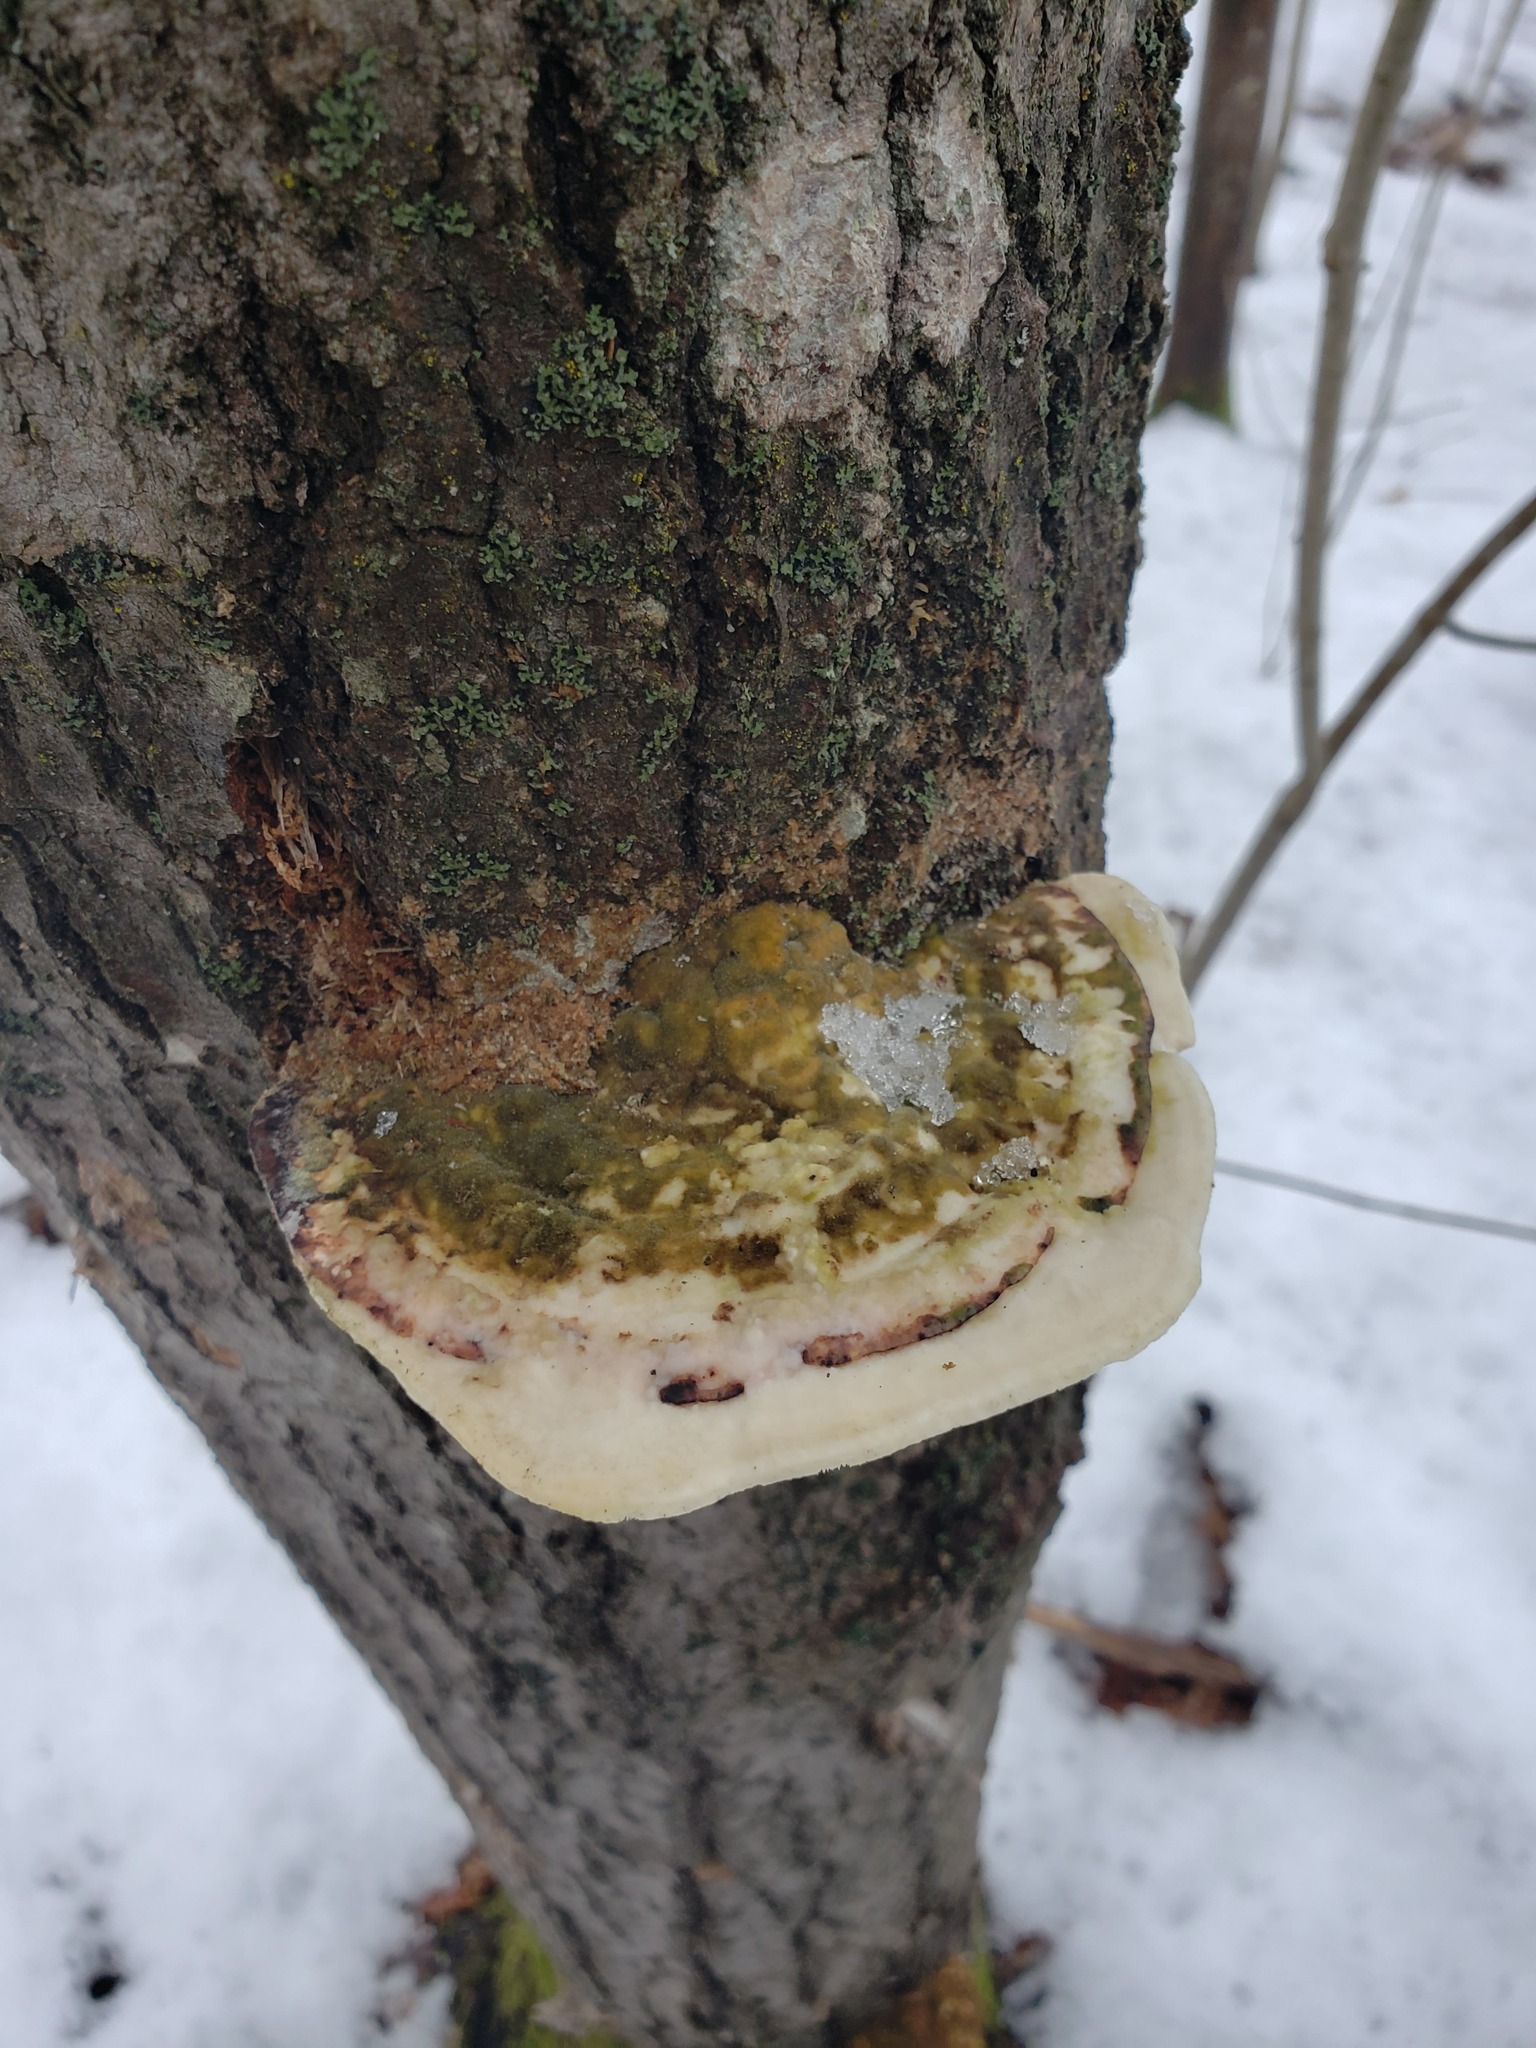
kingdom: Fungi
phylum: Basidiomycota
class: Agaricomycetes
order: Polyporales
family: Polyporaceae
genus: Trametes
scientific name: Trametes gibbosa
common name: Lumpy bracket
